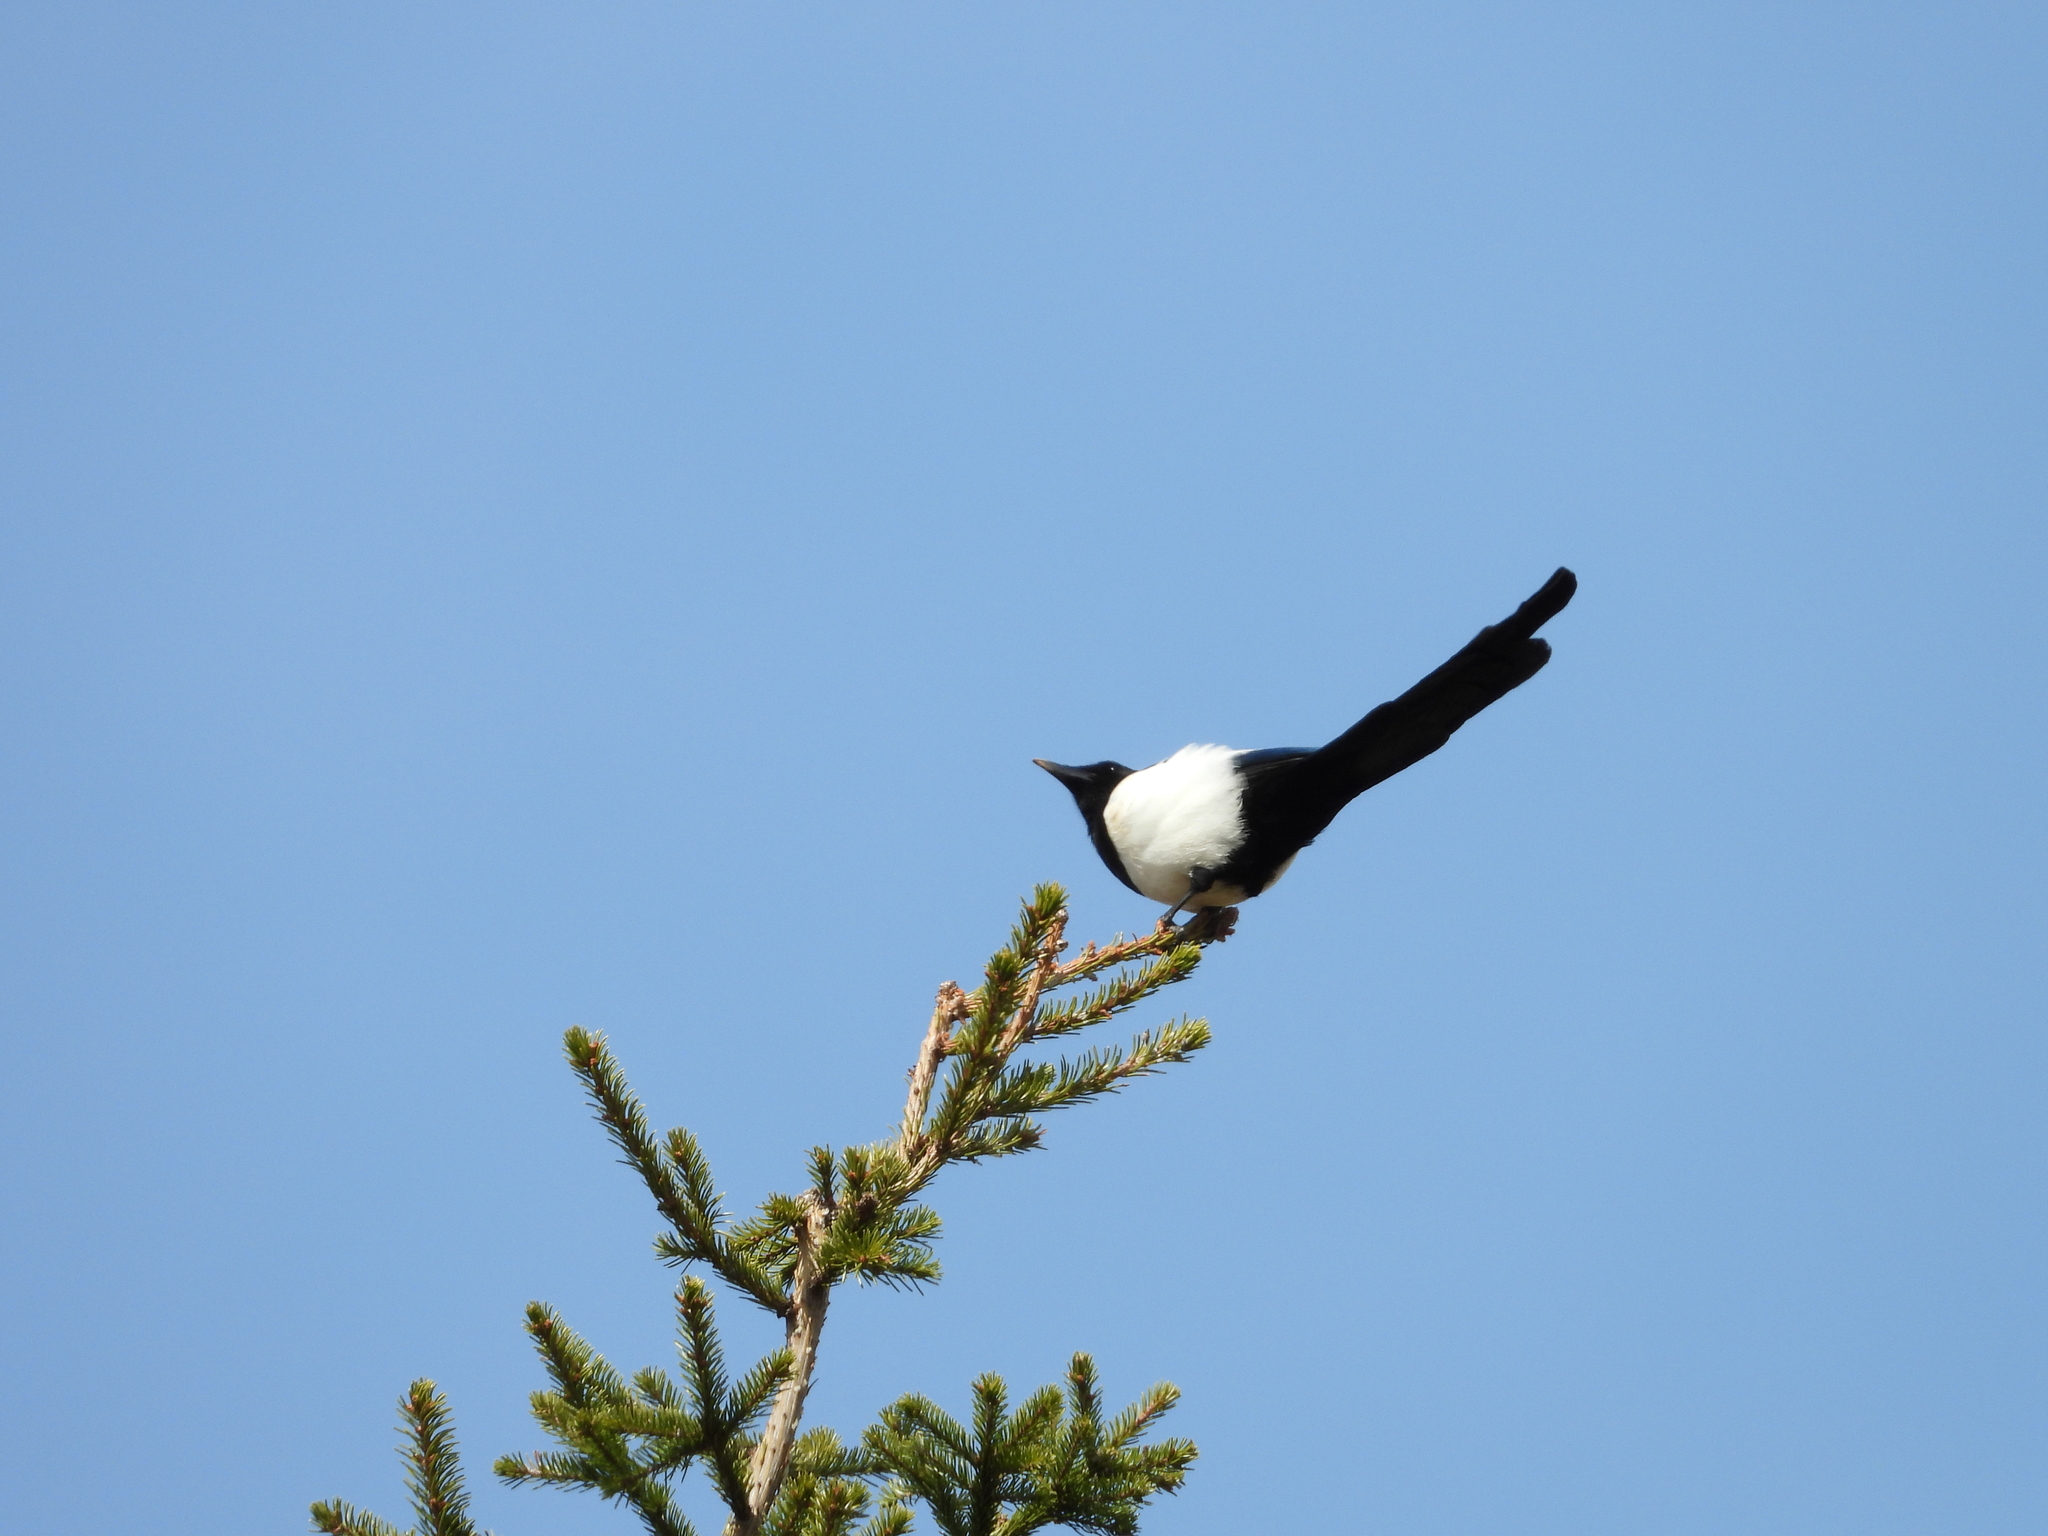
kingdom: Animalia
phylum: Chordata
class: Aves
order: Passeriformes
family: Corvidae
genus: Pica
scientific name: Pica pica
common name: Eurasian magpie
